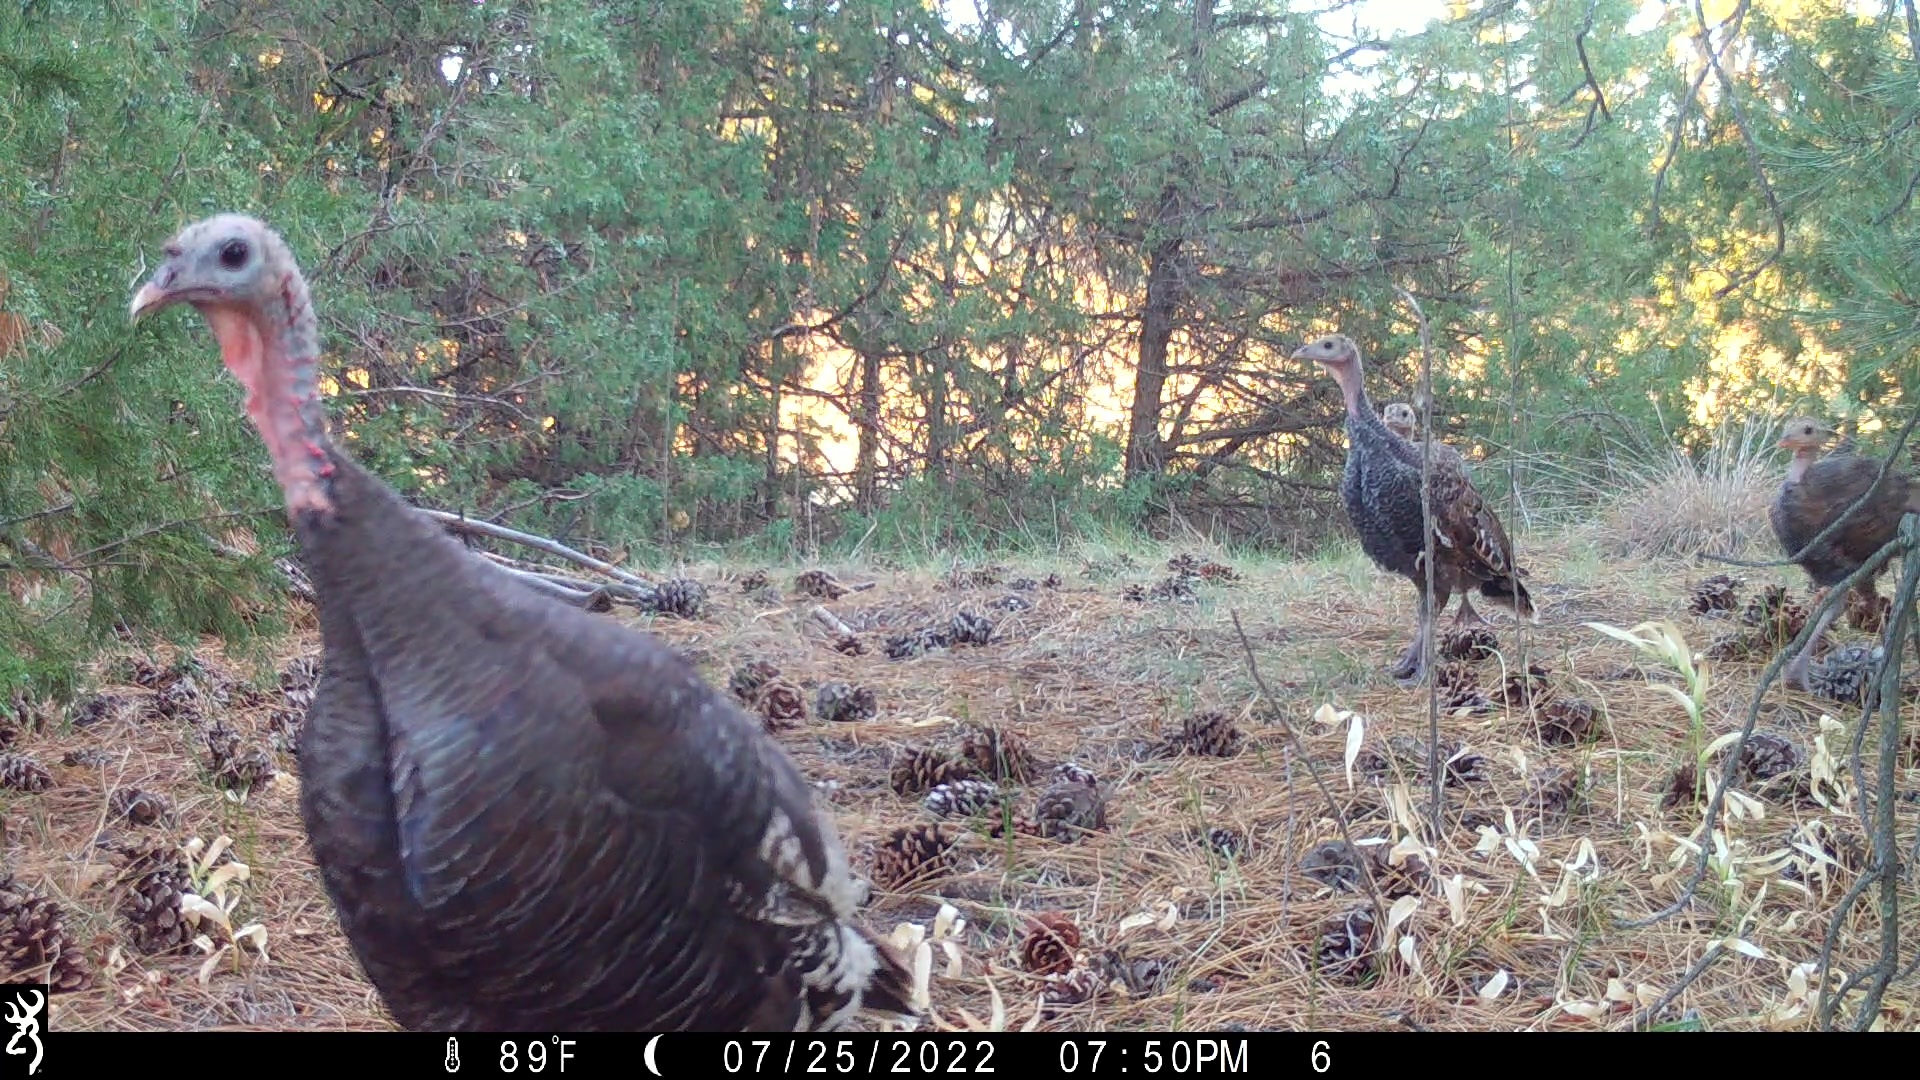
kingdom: Animalia
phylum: Chordata
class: Aves
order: Galliformes
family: Phasianidae
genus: Meleagris
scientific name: Meleagris gallopavo
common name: Wild turkey
